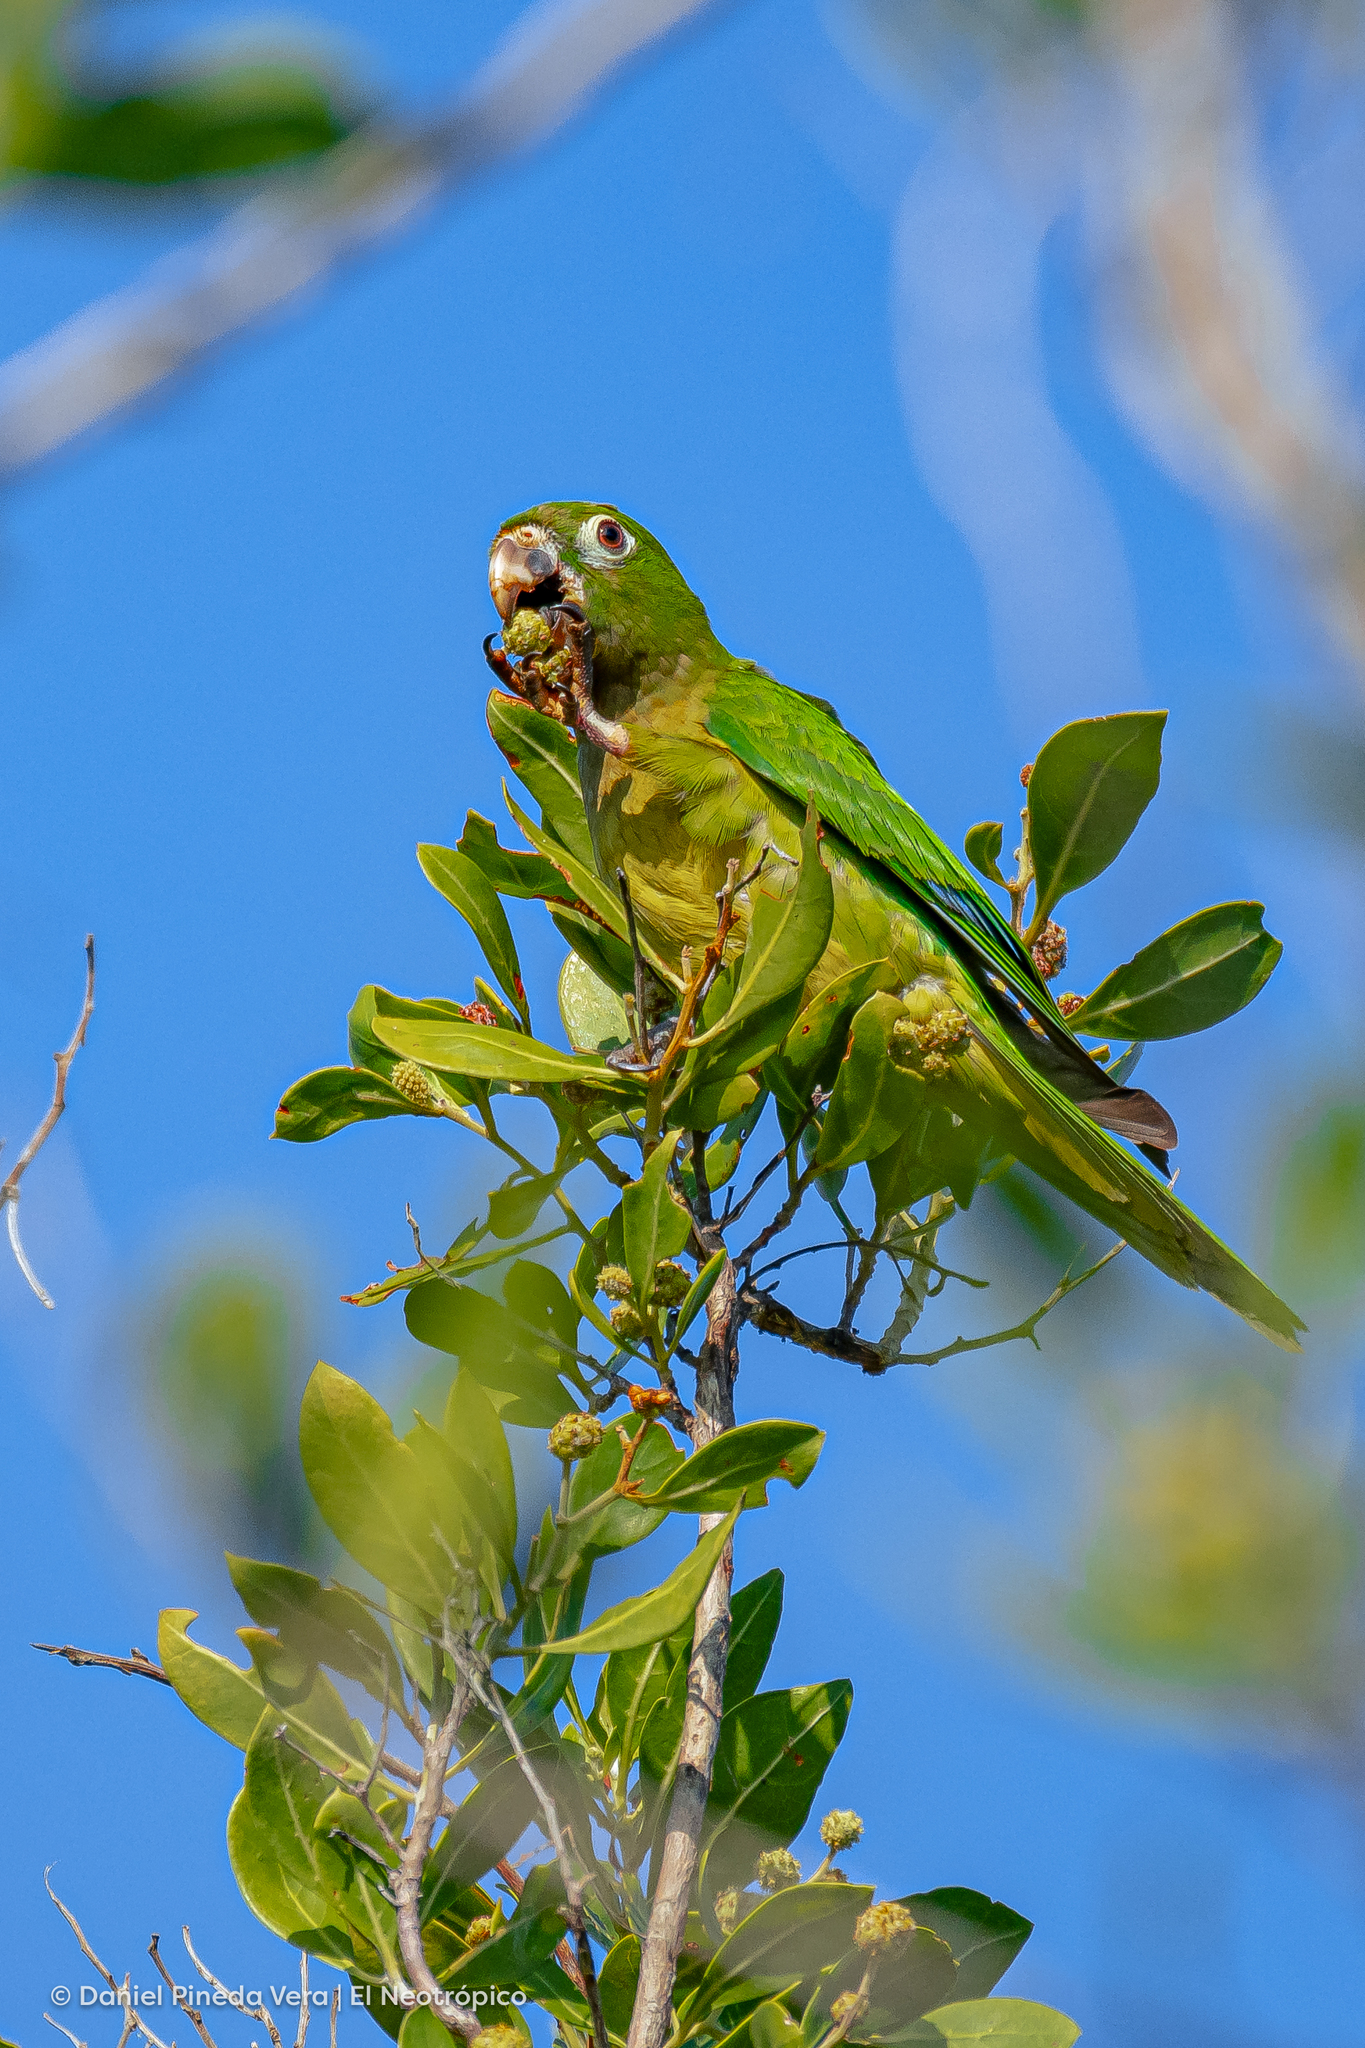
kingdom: Animalia
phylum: Chordata
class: Aves
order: Psittaciformes
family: Psittacidae
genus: Aratinga
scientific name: Aratinga nana
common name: Olive-throated parakeet
